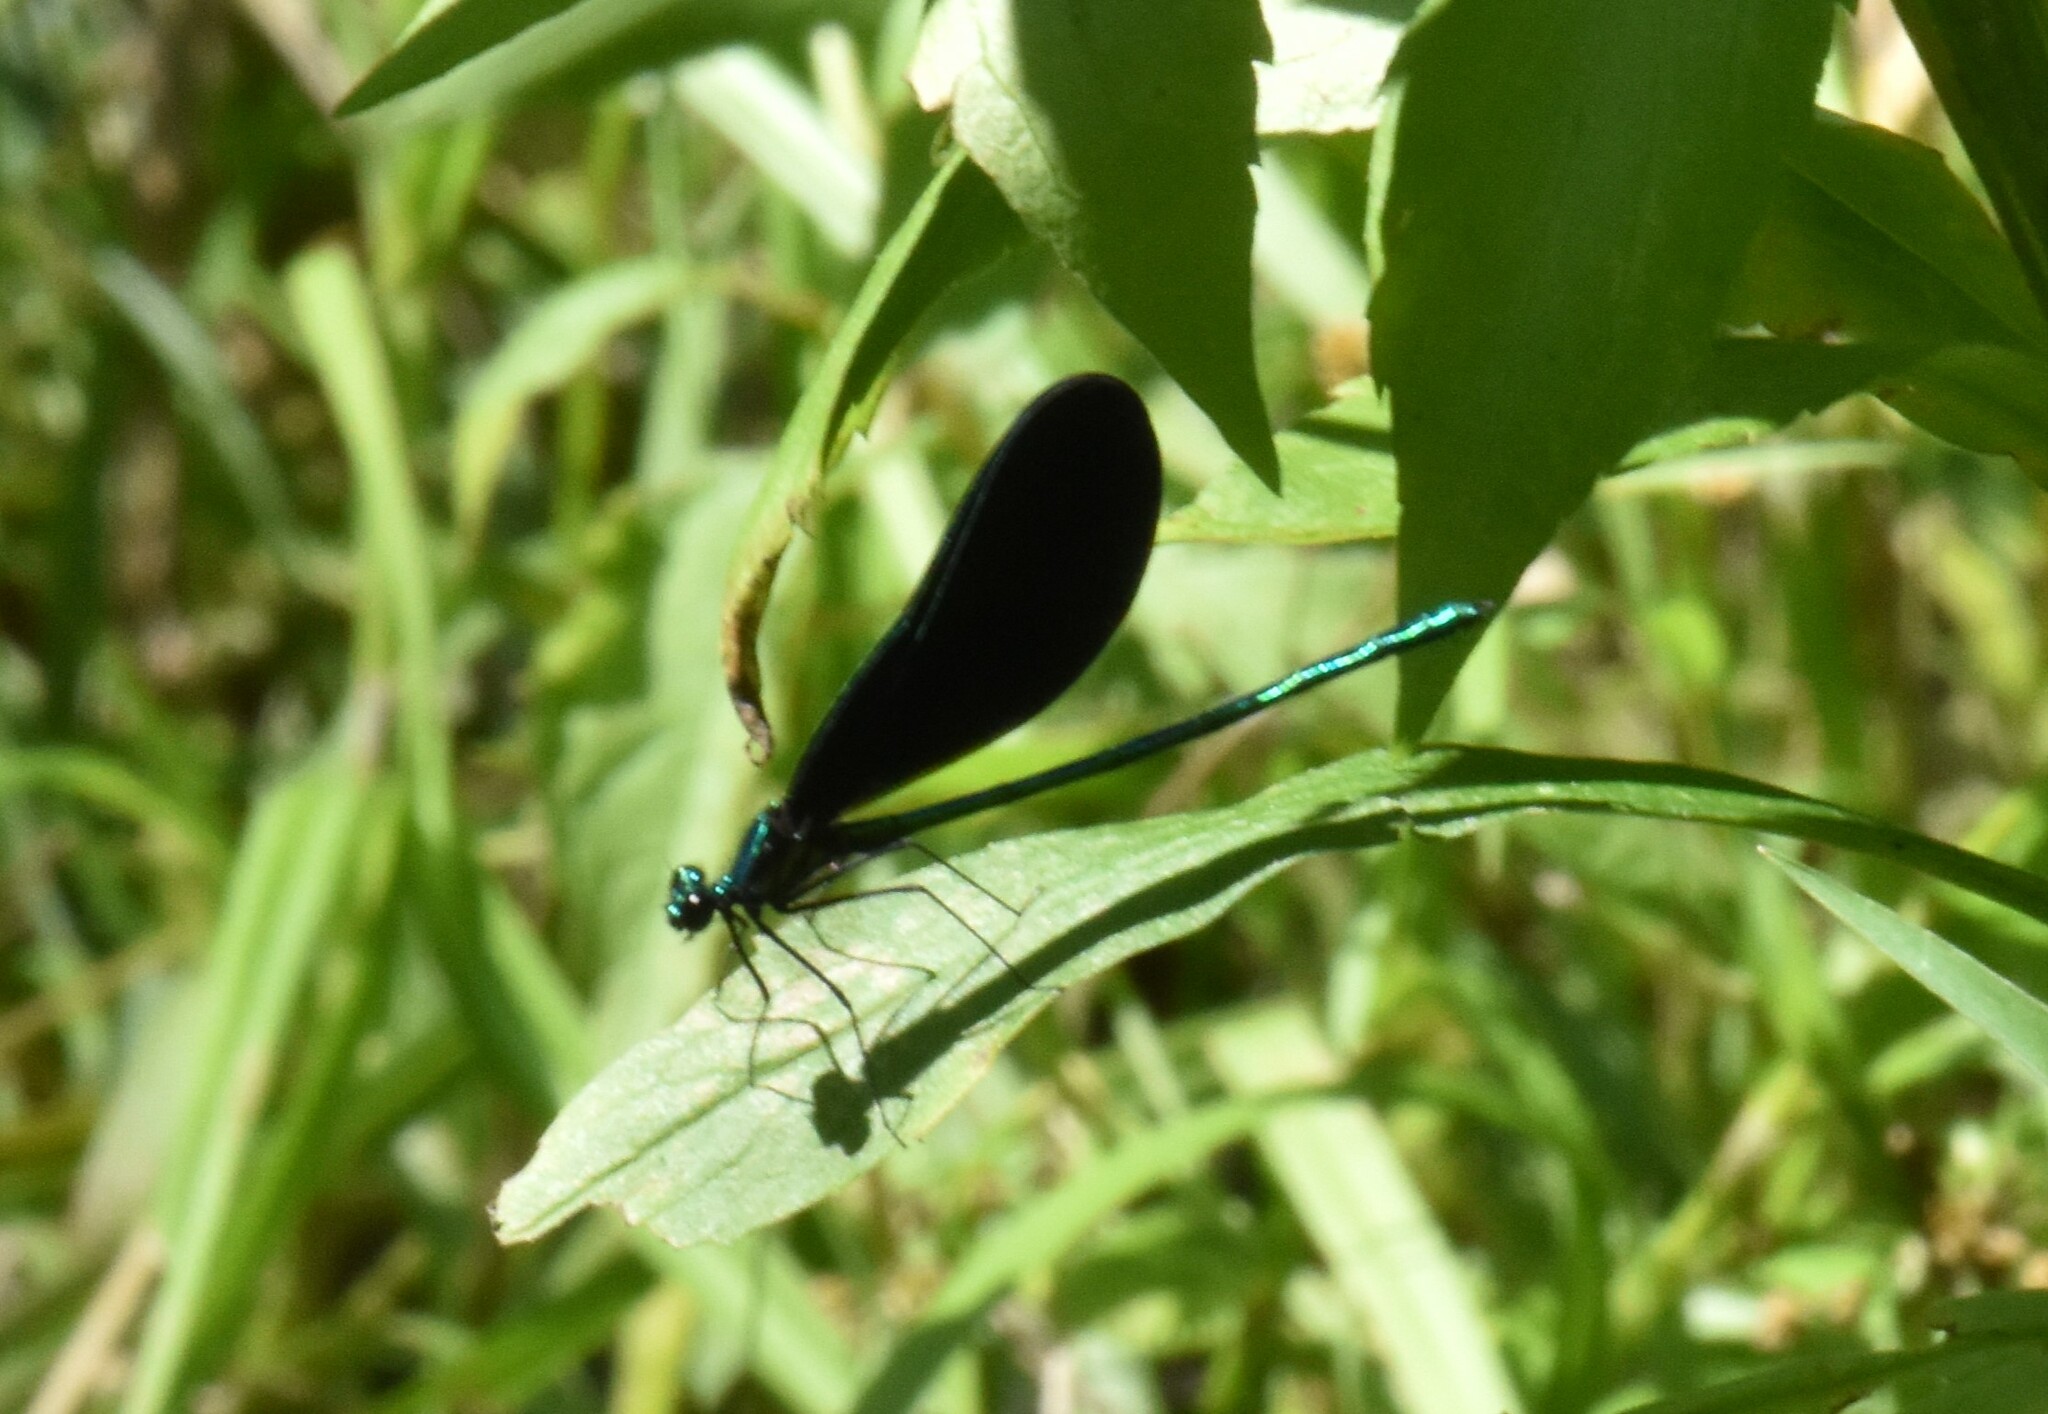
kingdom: Animalia
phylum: Arthropoda
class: Insecta
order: Odonata
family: Calopterygidae
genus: Calopteryx
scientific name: Calopteryx maculata
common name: Ebony jewelwing
